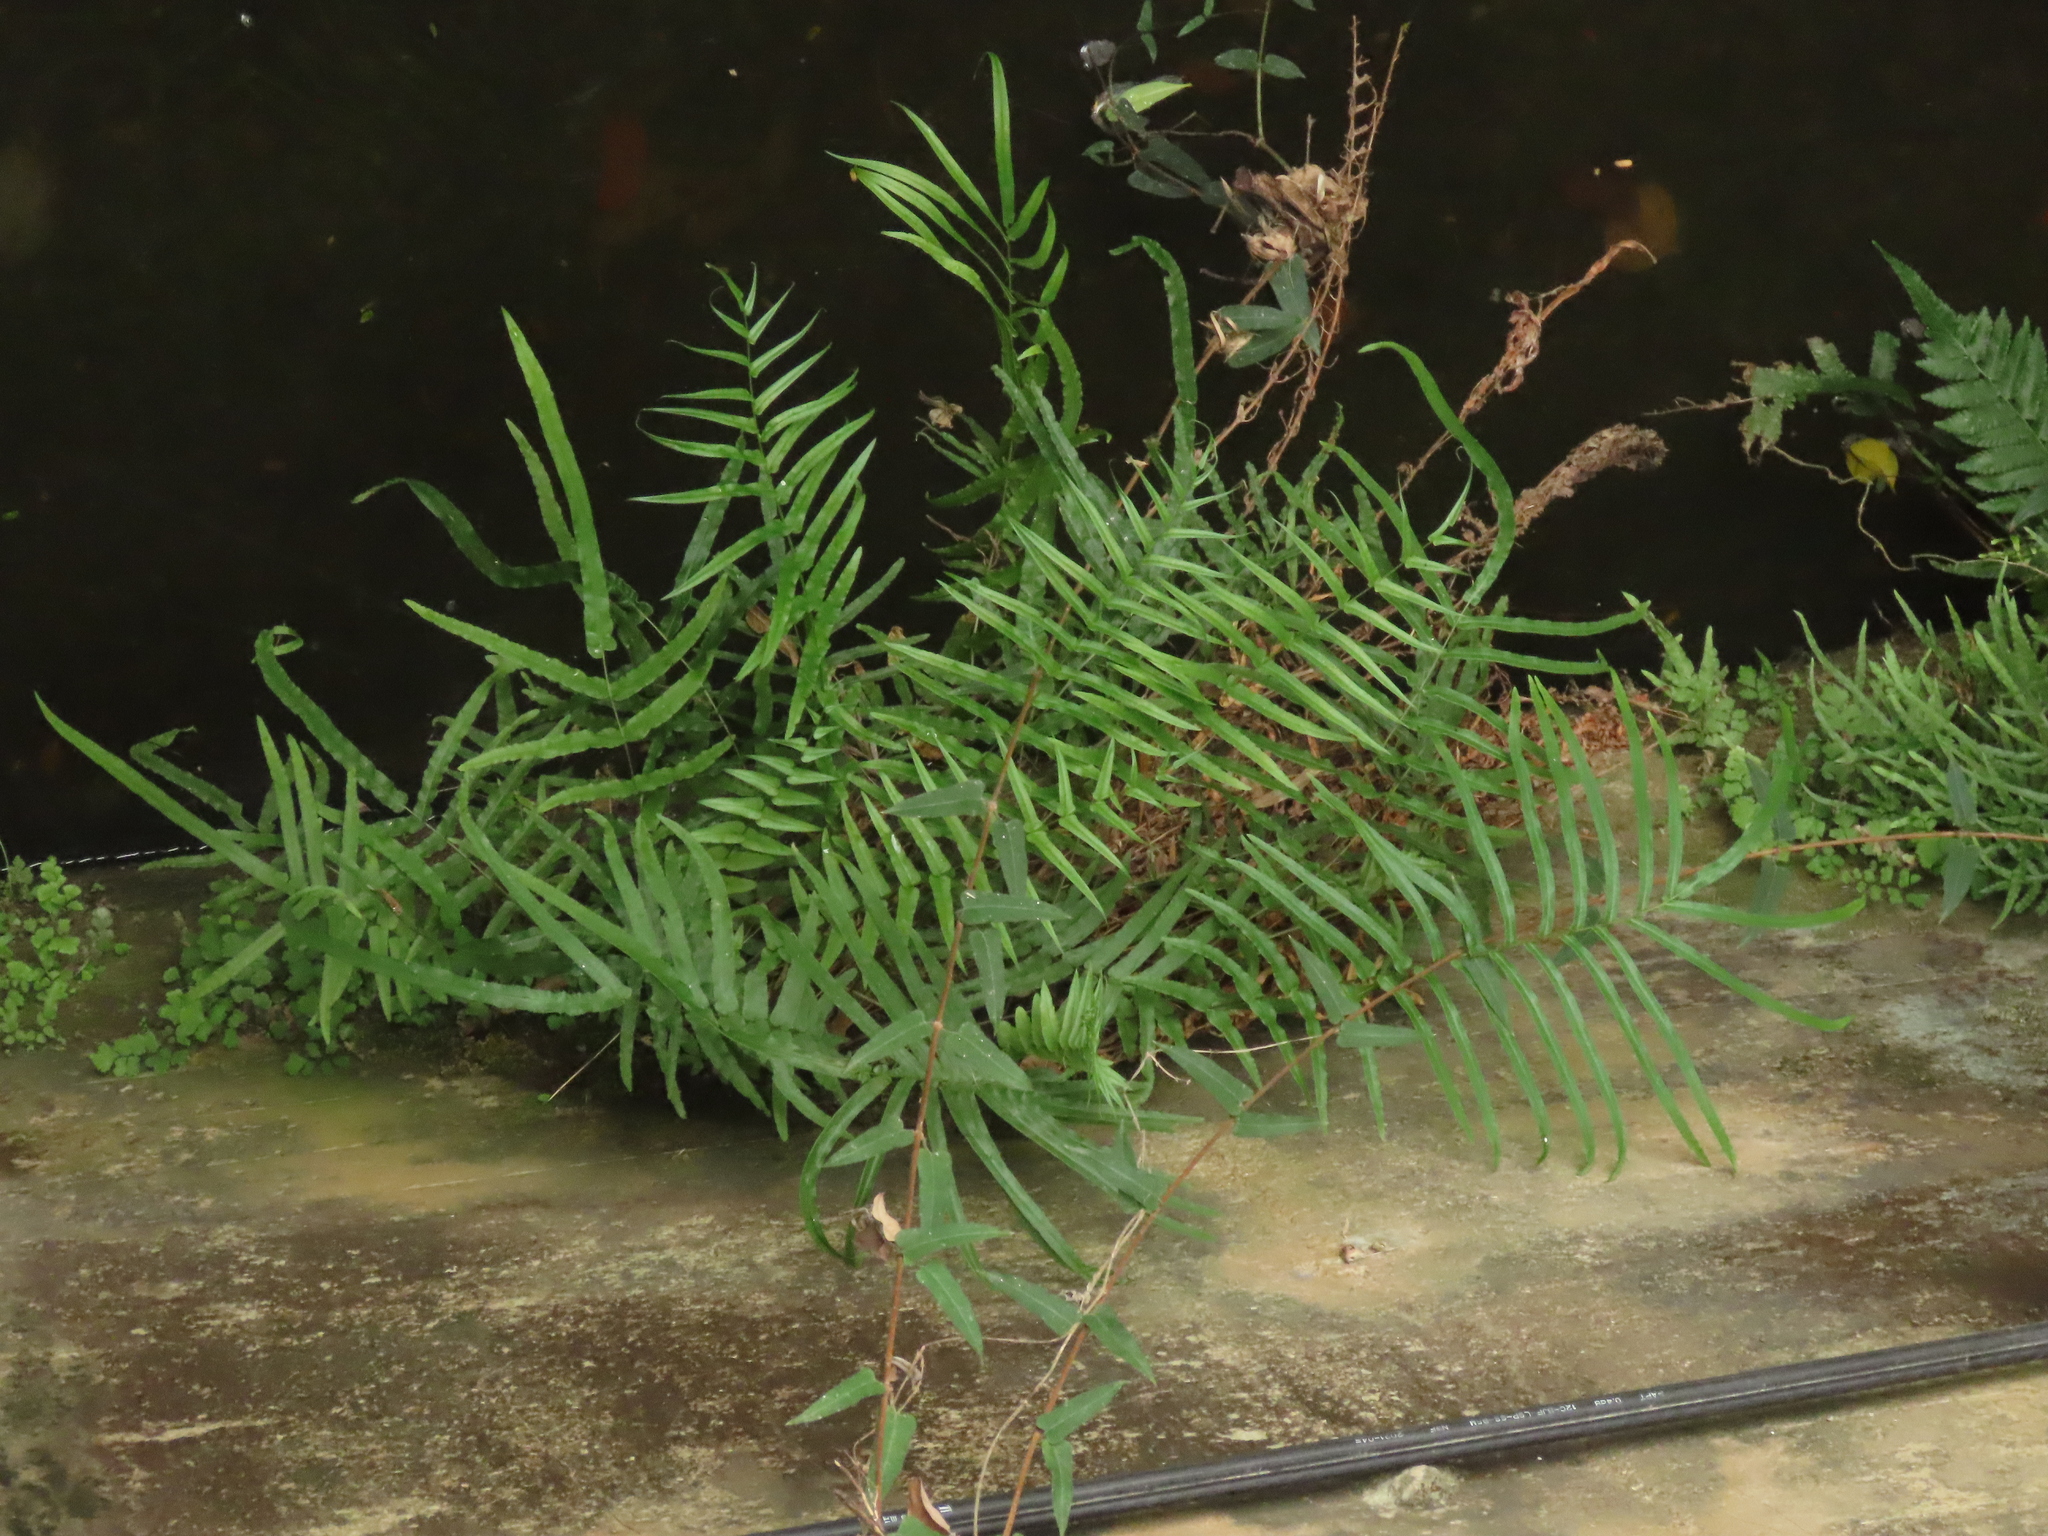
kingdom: Plantae
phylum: Tracheophyta
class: Polypodiopsida
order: Polypodiales
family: Pteridaceae
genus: Pteris
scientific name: Pteris vittata
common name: Ladder brake
